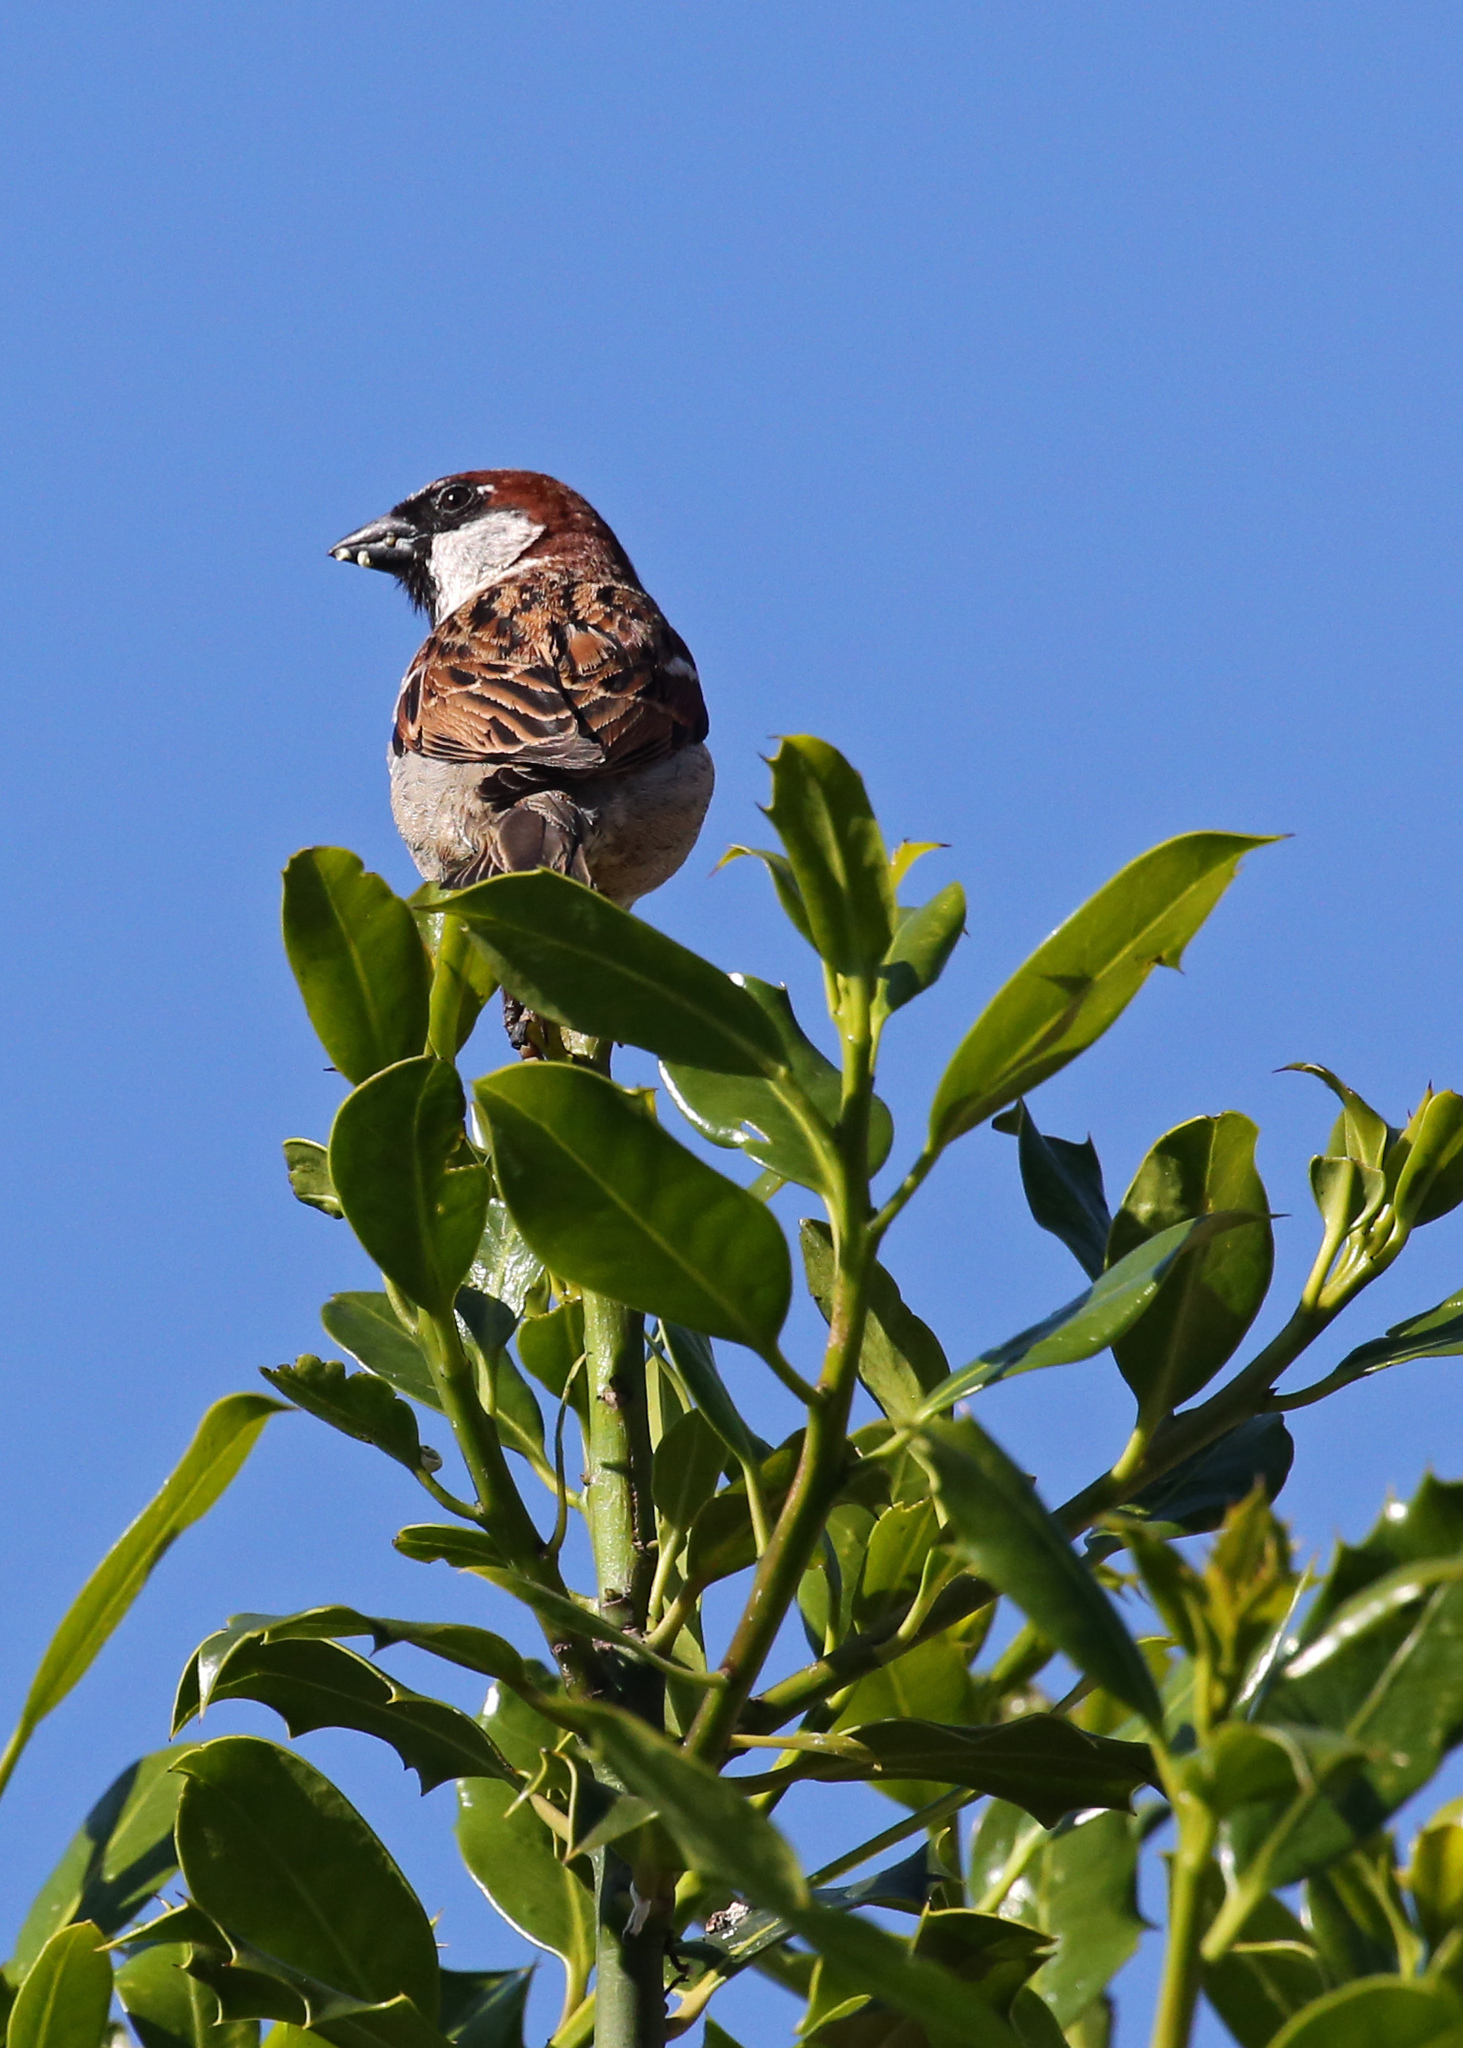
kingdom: Animalia
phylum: Chordata
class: Aves
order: Passeriformes
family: Passeridae
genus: Passer
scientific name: Passer domesticus
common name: House sparrow
